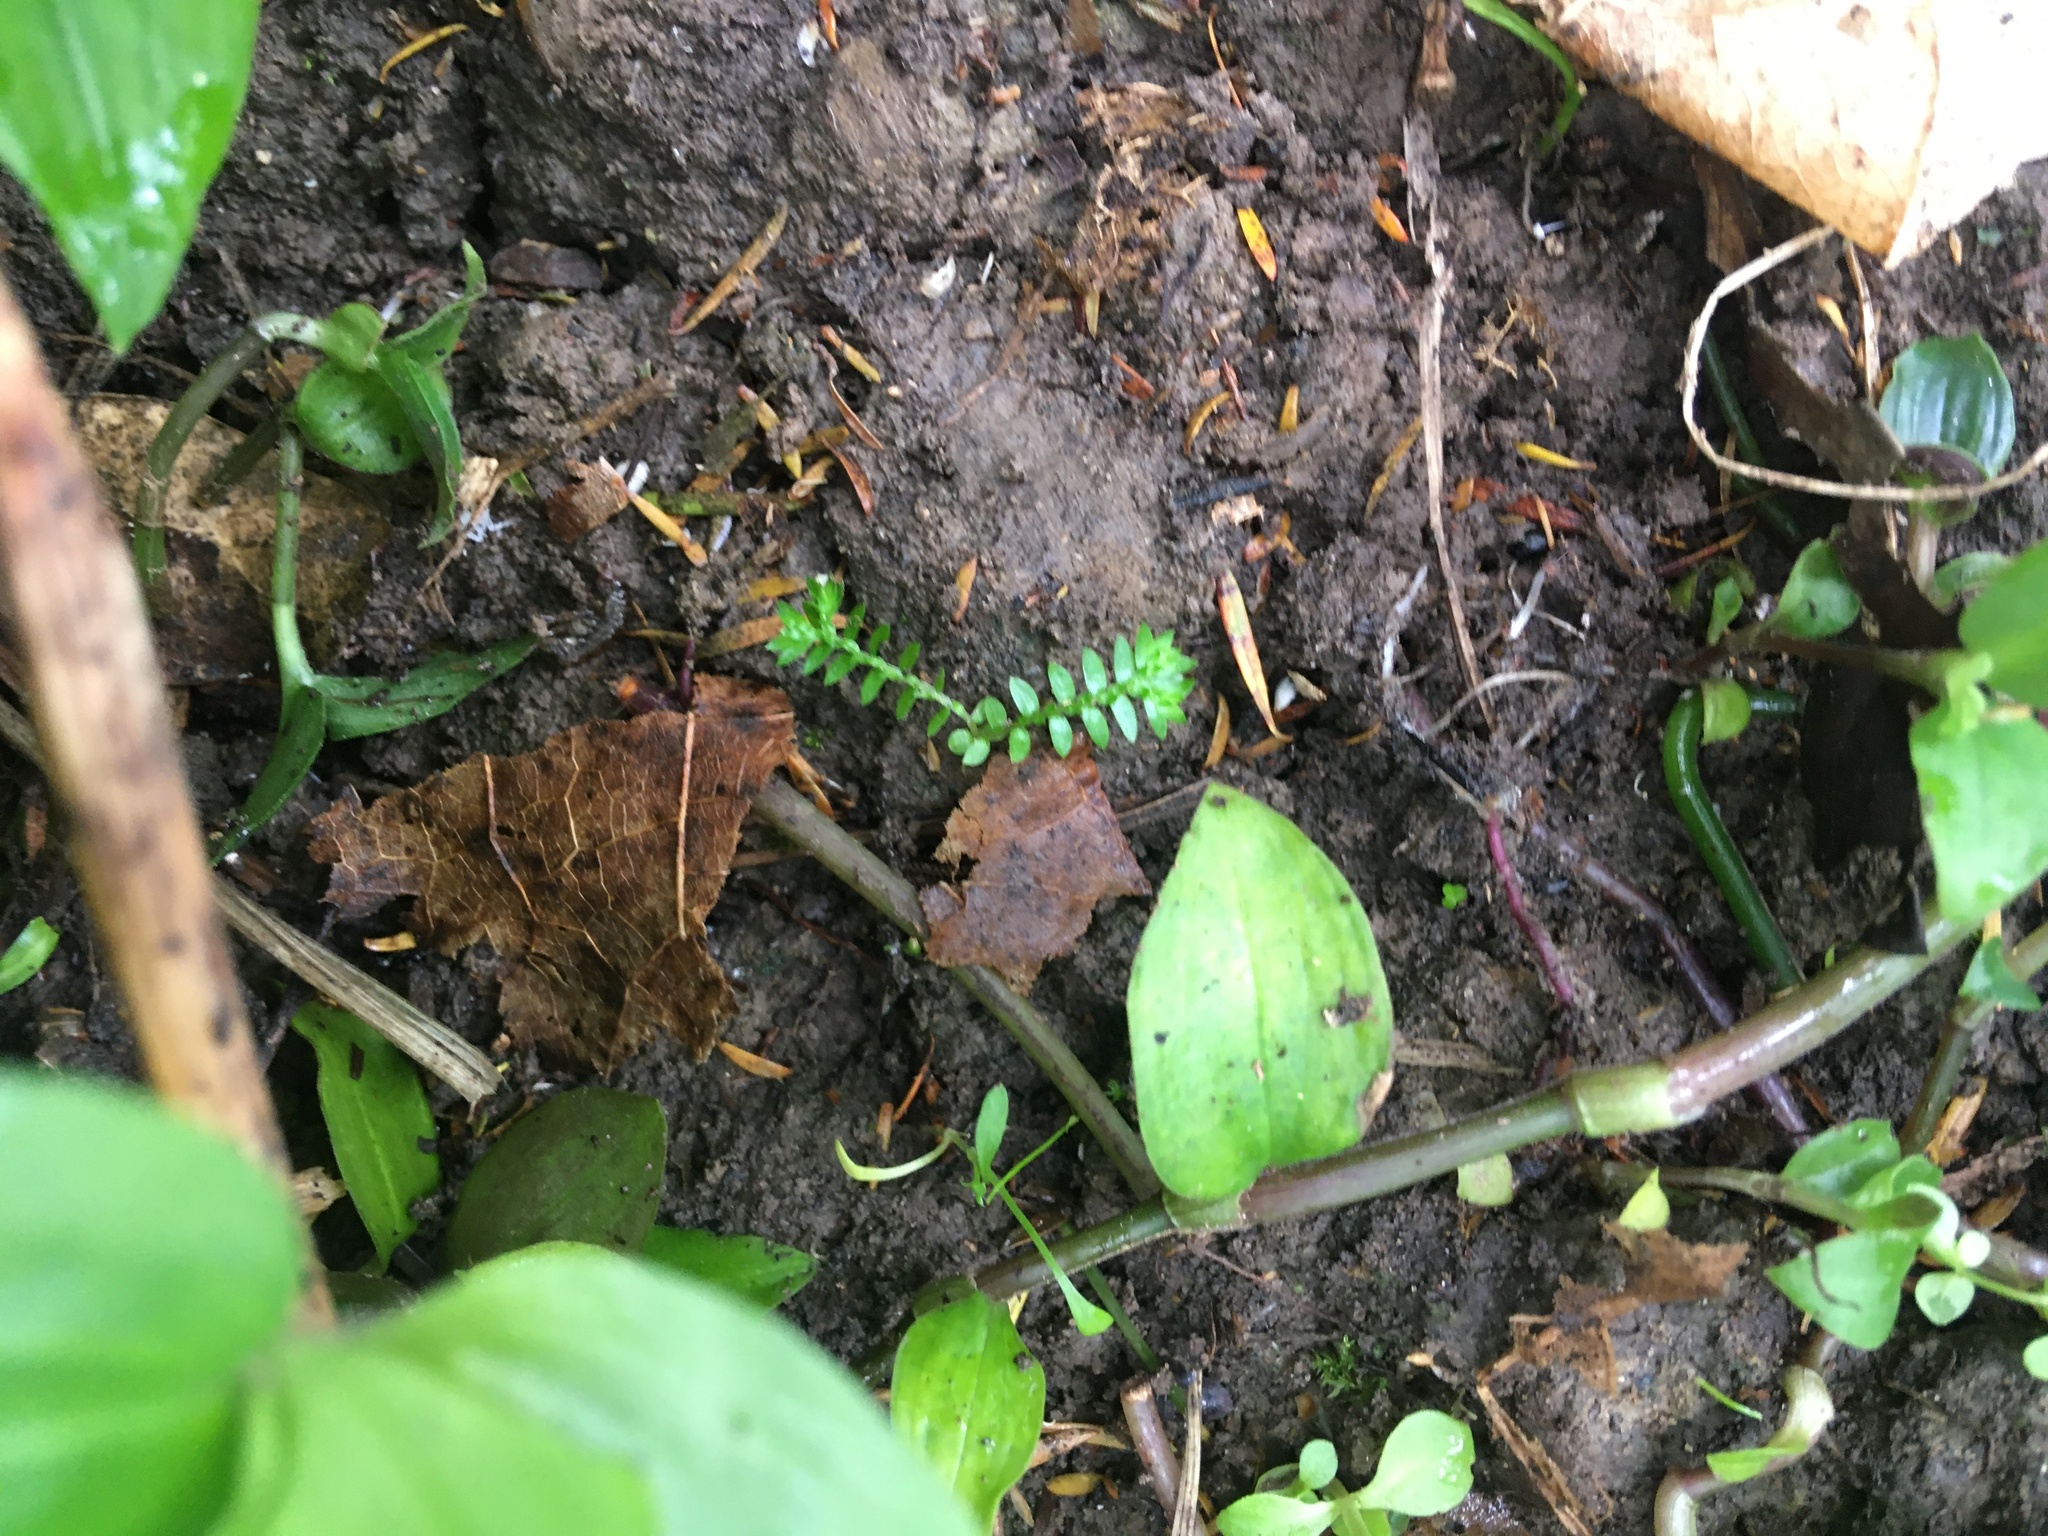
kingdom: Plantae
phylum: Tracheophyta
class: Lycopodiopsida
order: Selaginellales
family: Selaginellaceae
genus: Selaginella
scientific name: Selaginella kraussiana
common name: Krauss' spikemoss
